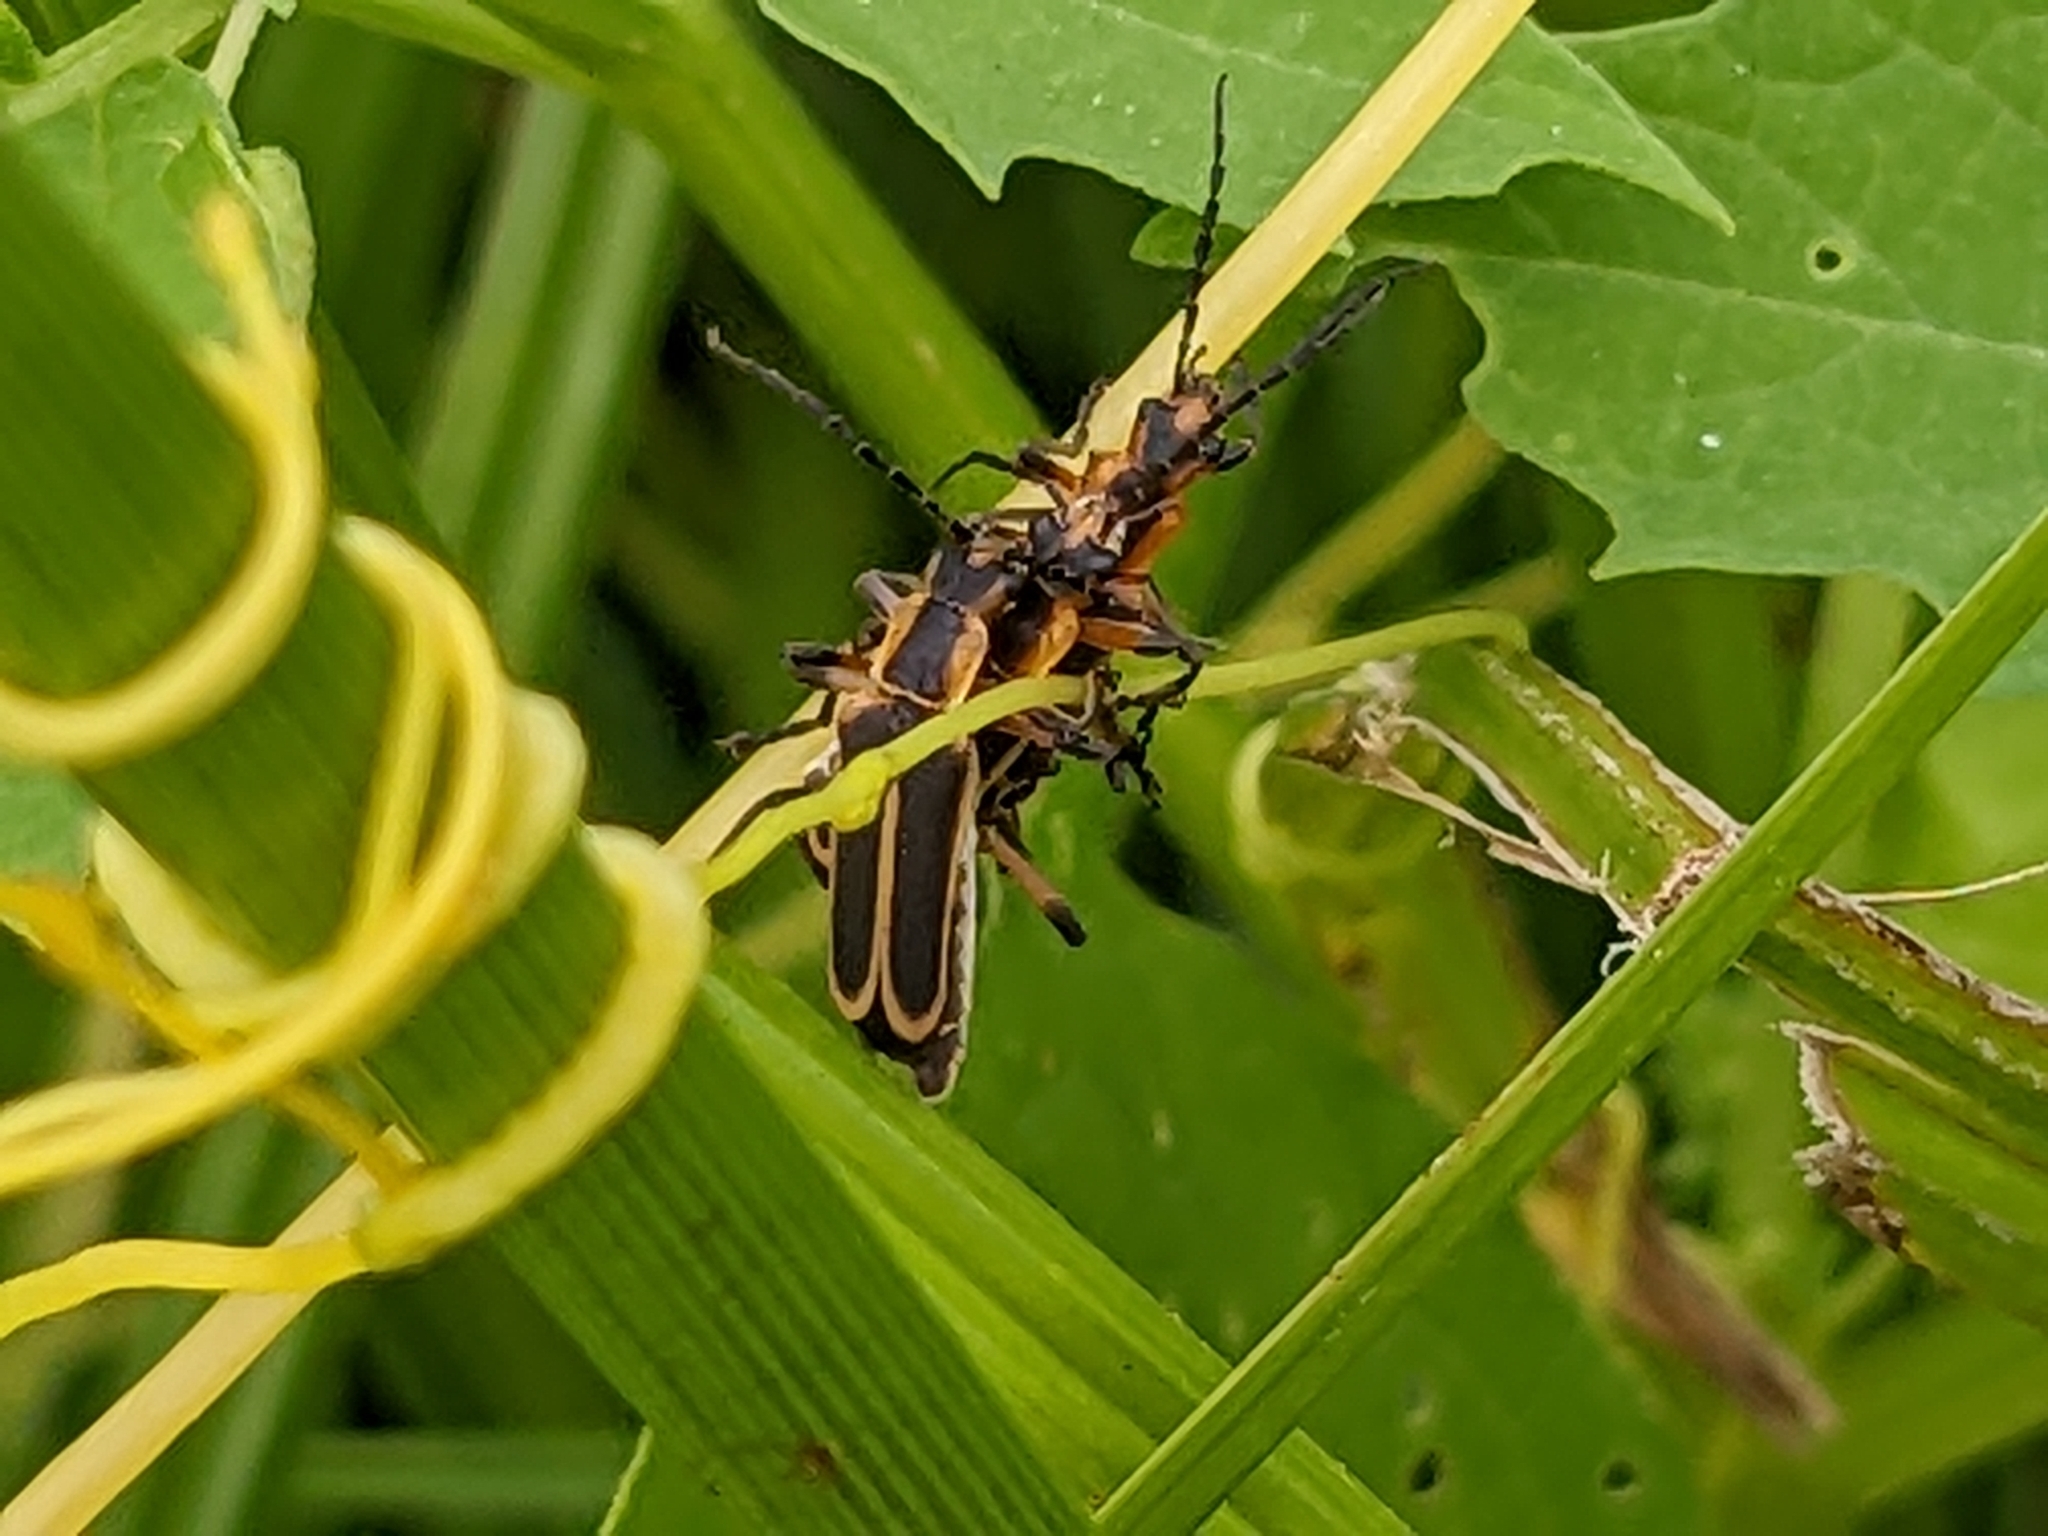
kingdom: Animalia
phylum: Arthropoda
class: Insecta
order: Coleoptera
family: Cantharidae
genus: Chauliognathus
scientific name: Chauliognathus marginatus
